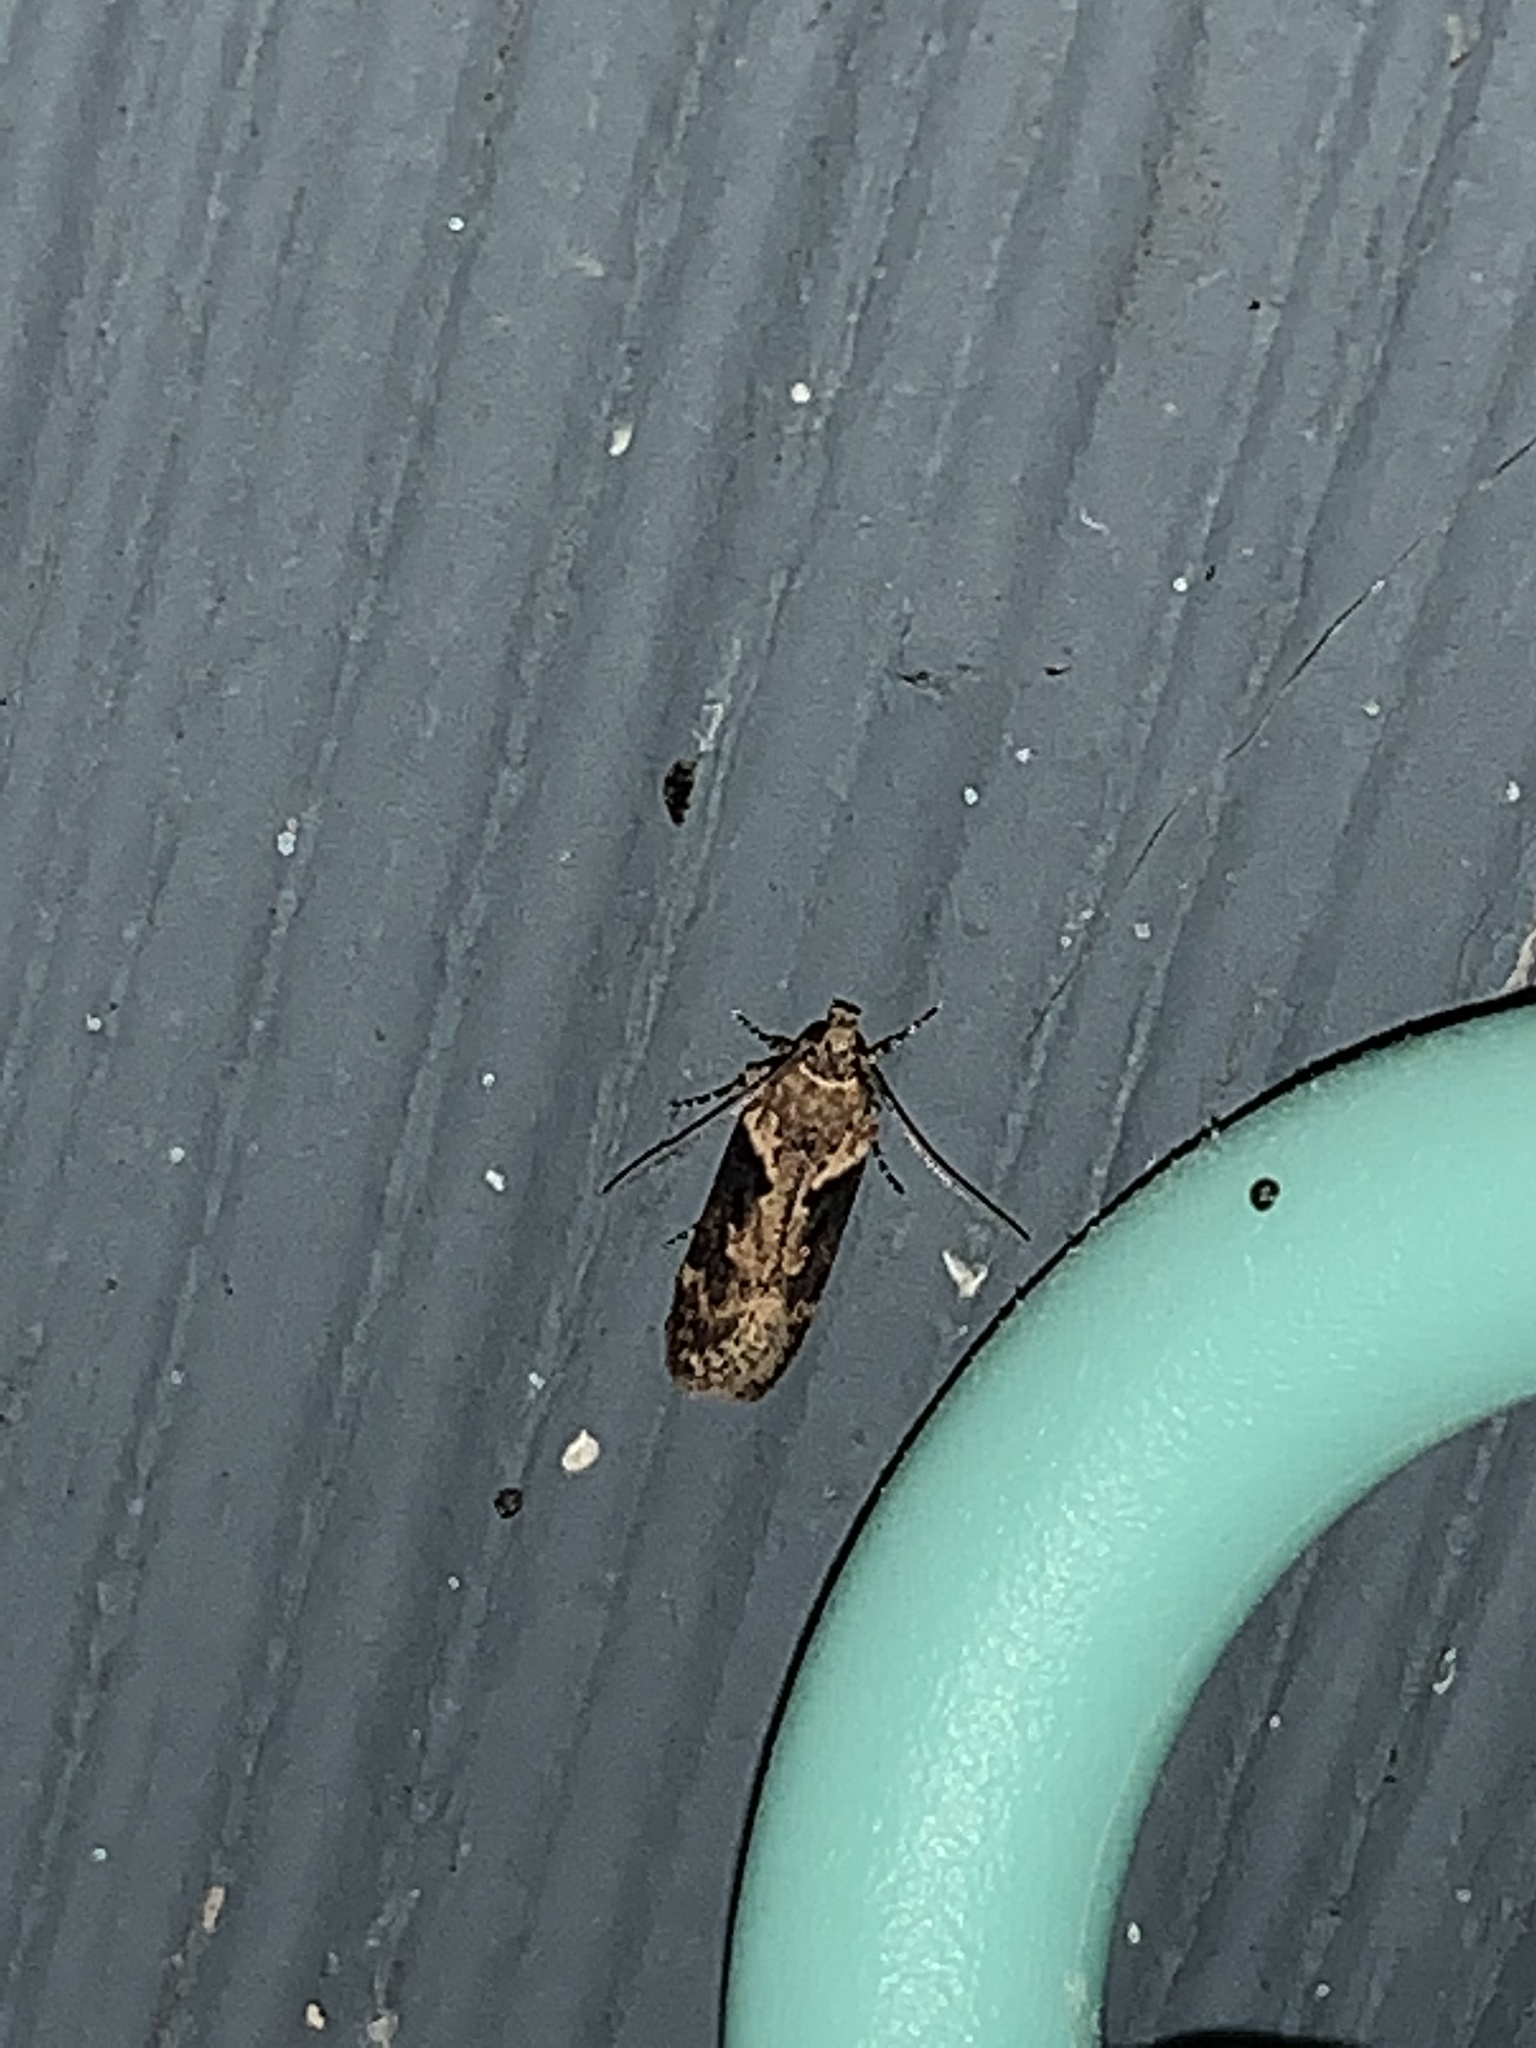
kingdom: Animalia
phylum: Arthropoda
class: Insecta
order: Lepidoptera
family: Gelechiidae
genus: Chionodes
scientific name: Chionodes mediofuscella
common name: Black-smudged chionodes moth
